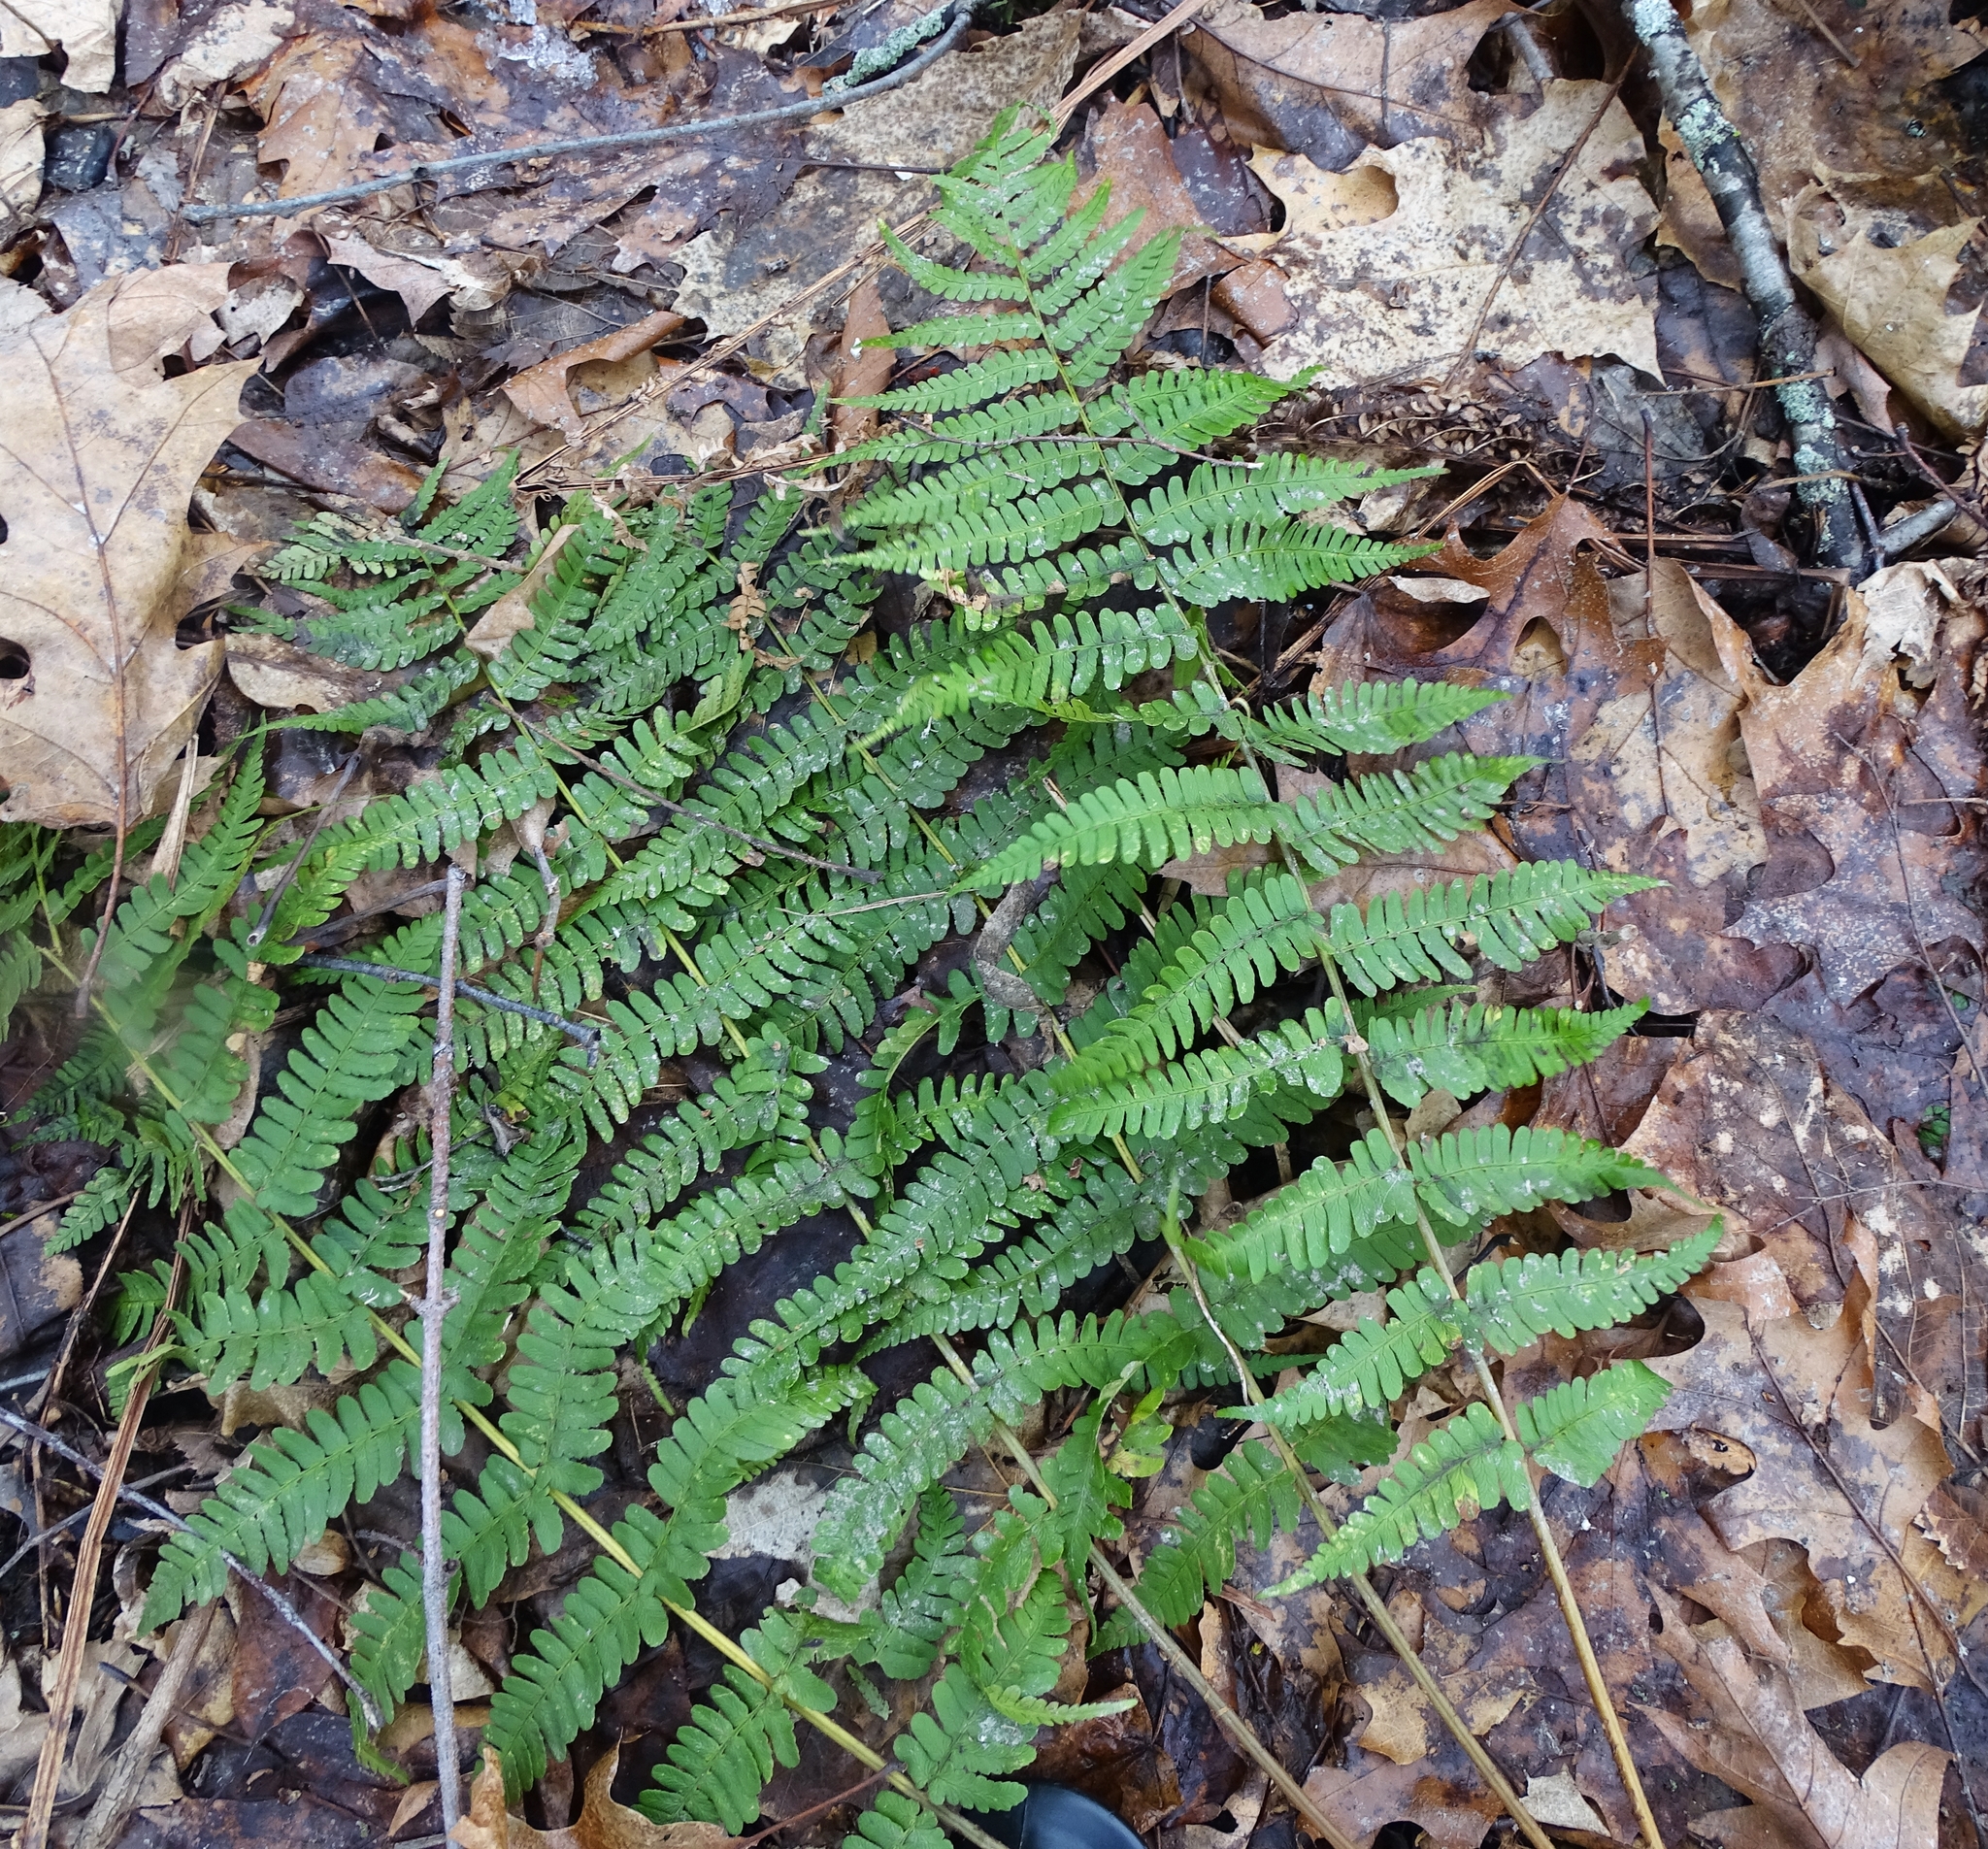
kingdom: Plantae
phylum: Tracheophyta
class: Polypodiopsida
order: Polypodiales
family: Dryopteridaceae
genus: Dryopteris
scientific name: Dryopteris marginalis
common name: Marginal wood fern
